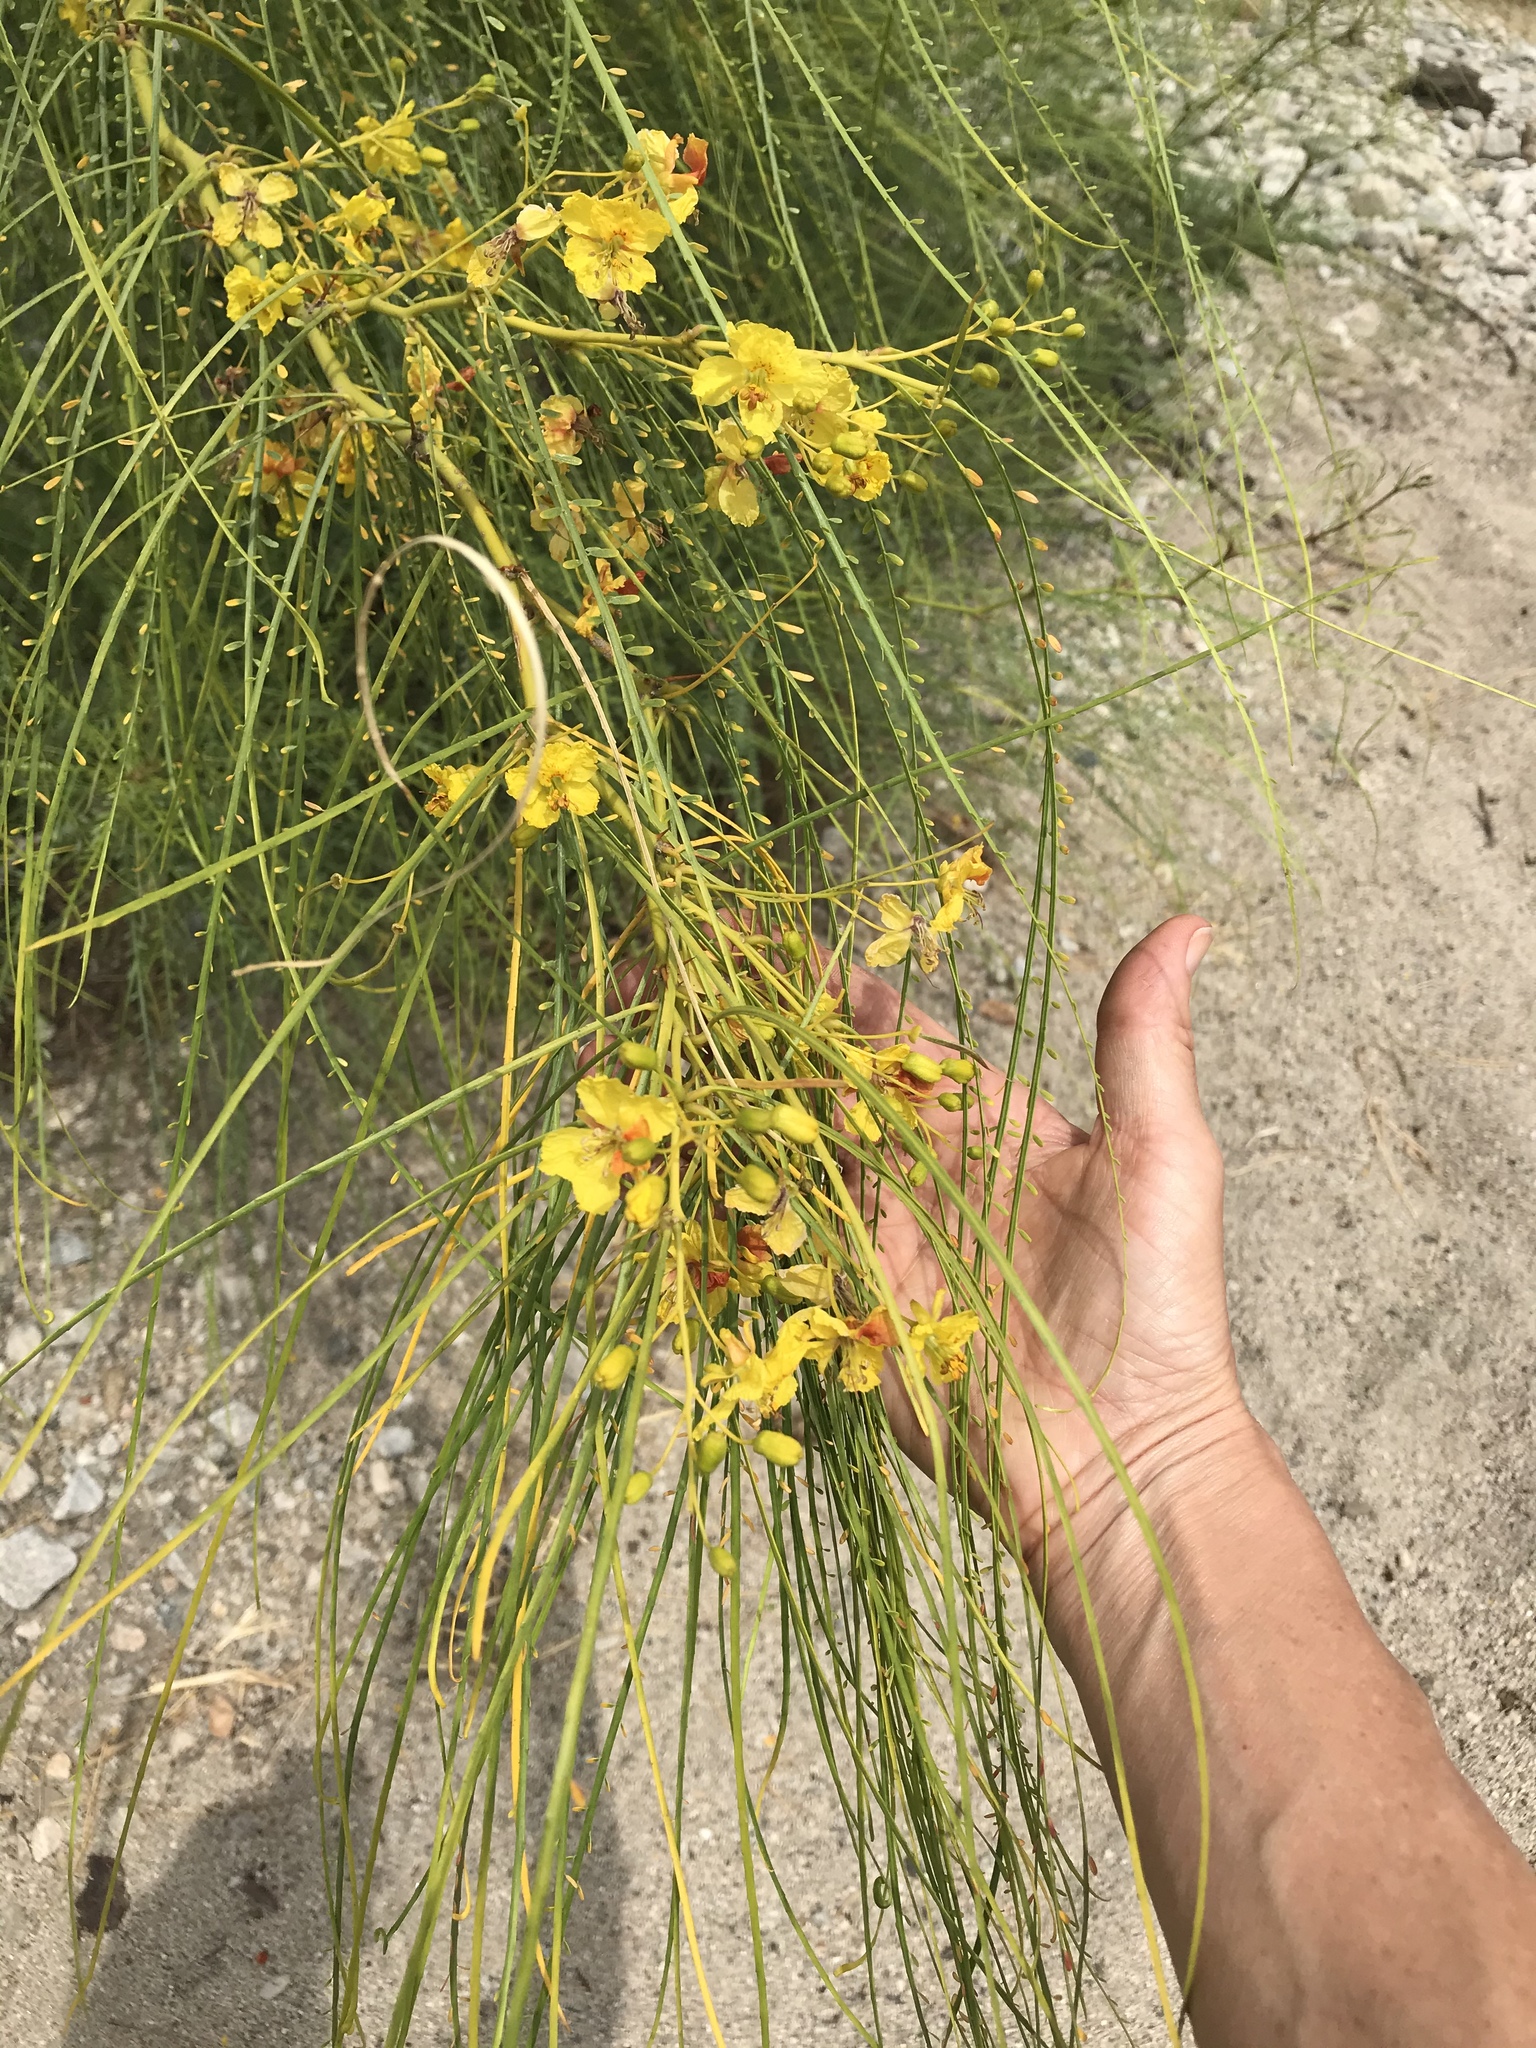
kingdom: Plantae
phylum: Tracheophyta
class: Magnoliopsida
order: Fabales
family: Fabaceae
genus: Parkinsonia
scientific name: Parkinsonia aculeata
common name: Jerusalem thorn
